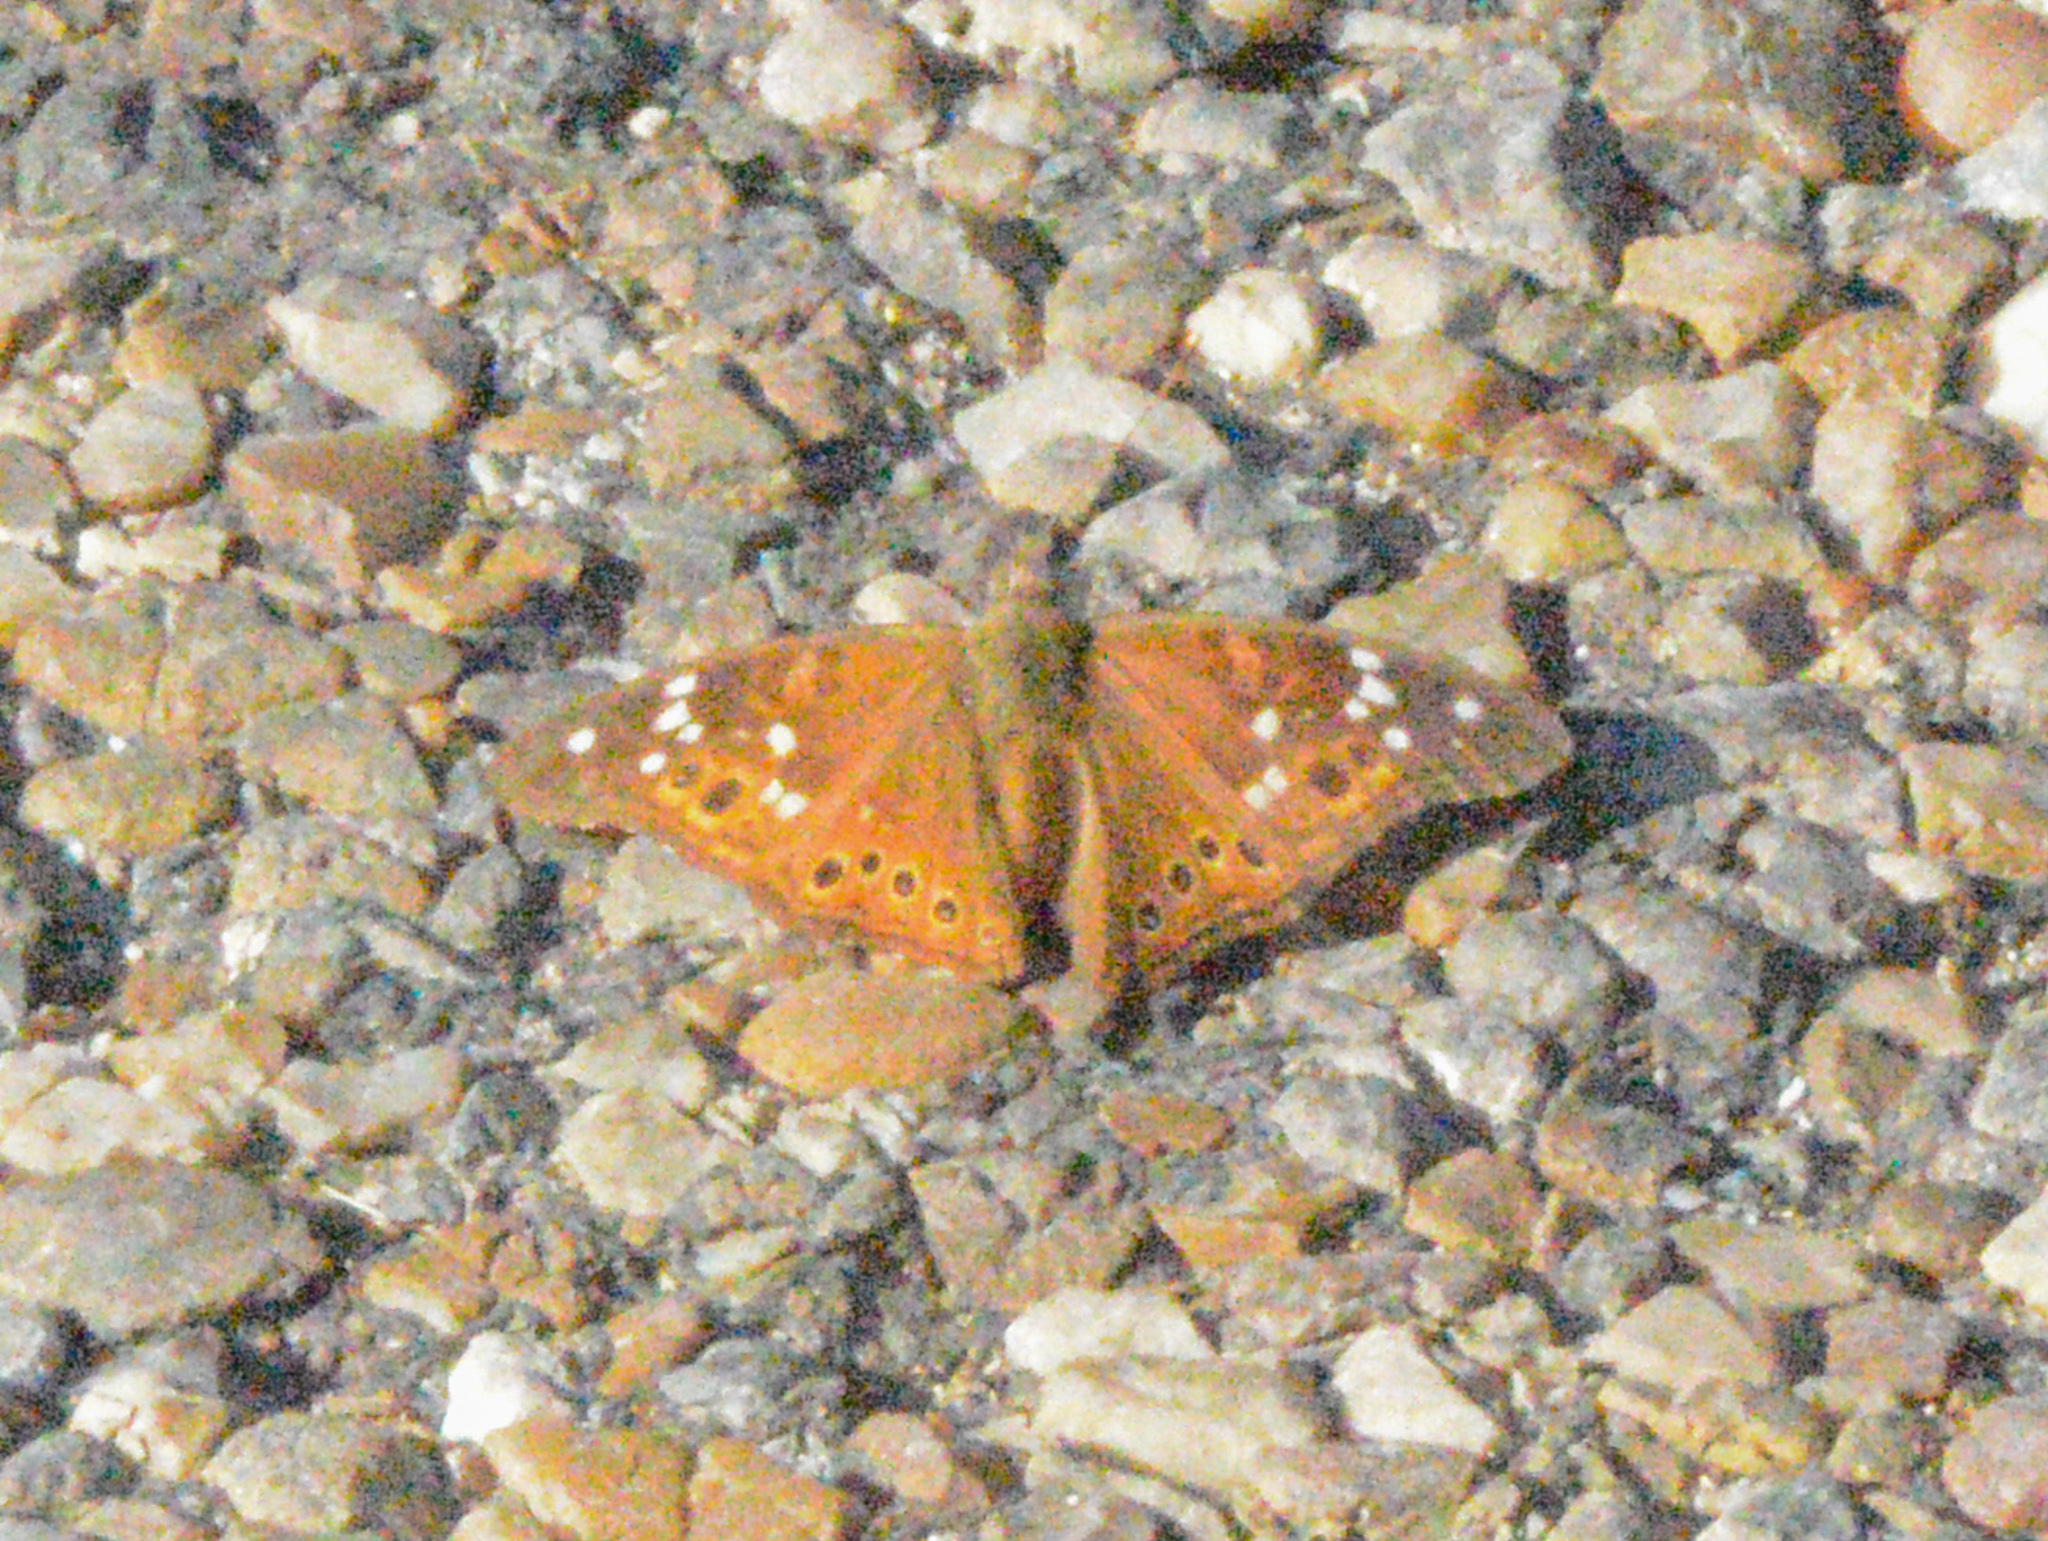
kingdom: Animalia
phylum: Arthropoda
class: Insecta
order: Lepidoptera
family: Nymphalidae
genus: Asterocampa
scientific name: Asterocampa leilia
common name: Empress leilia
